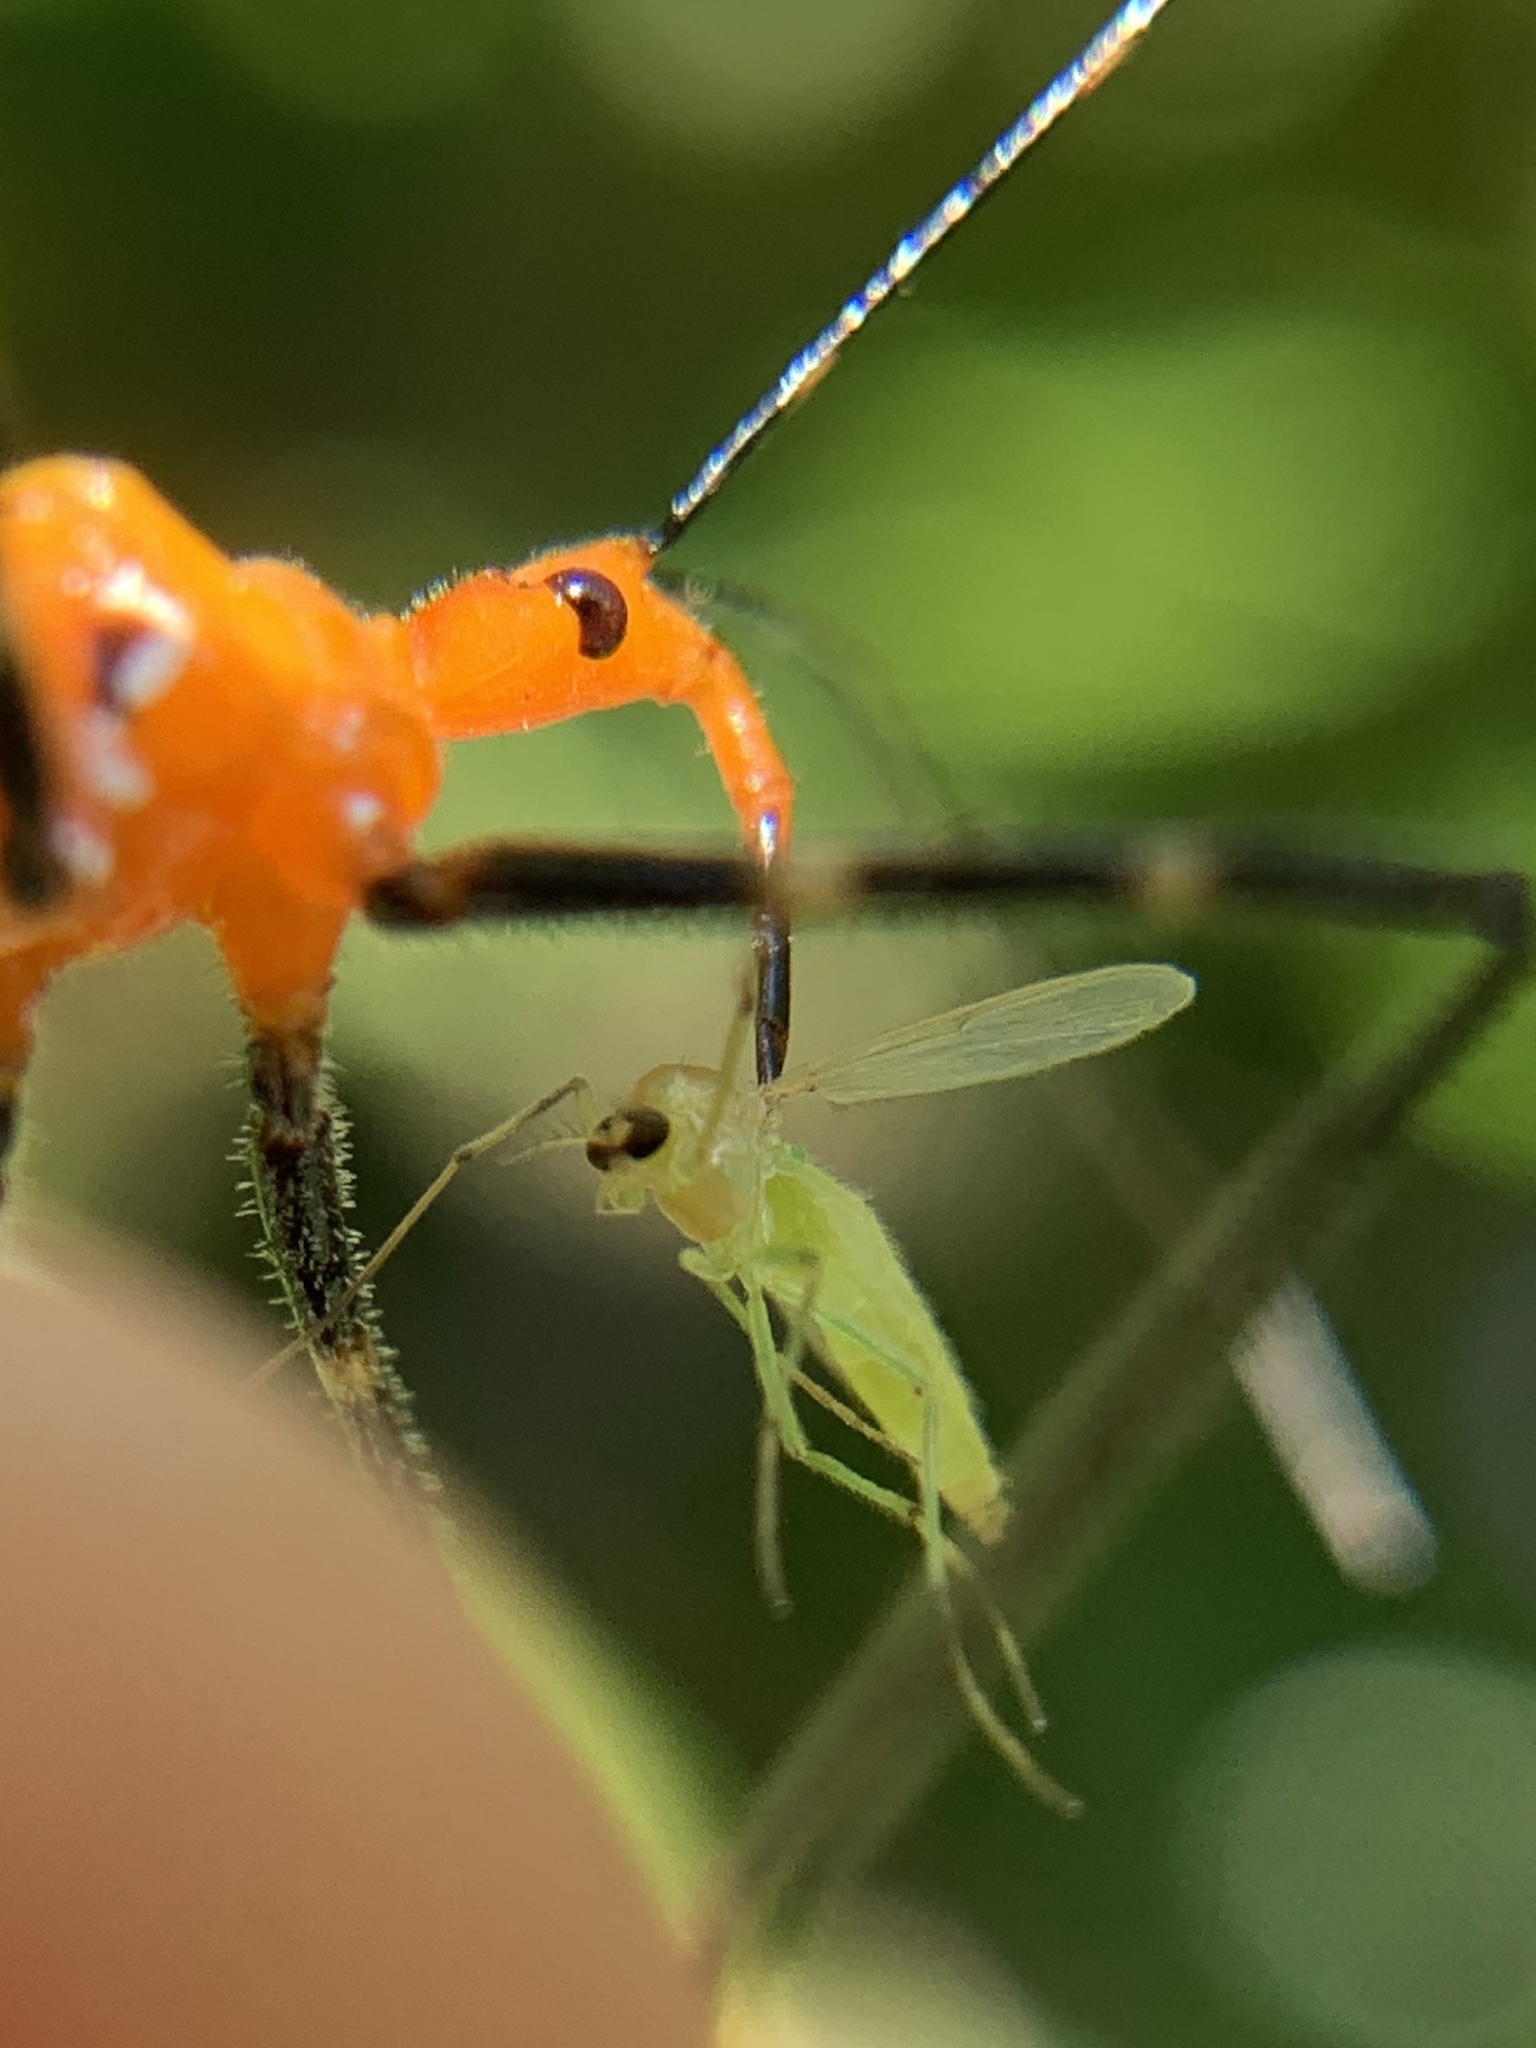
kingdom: Animalia
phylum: Arthropoda
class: Insecta
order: Hemiptera
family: Reduviidae
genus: Zelus
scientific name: Zelus longipes
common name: Milkweed assassin bug
